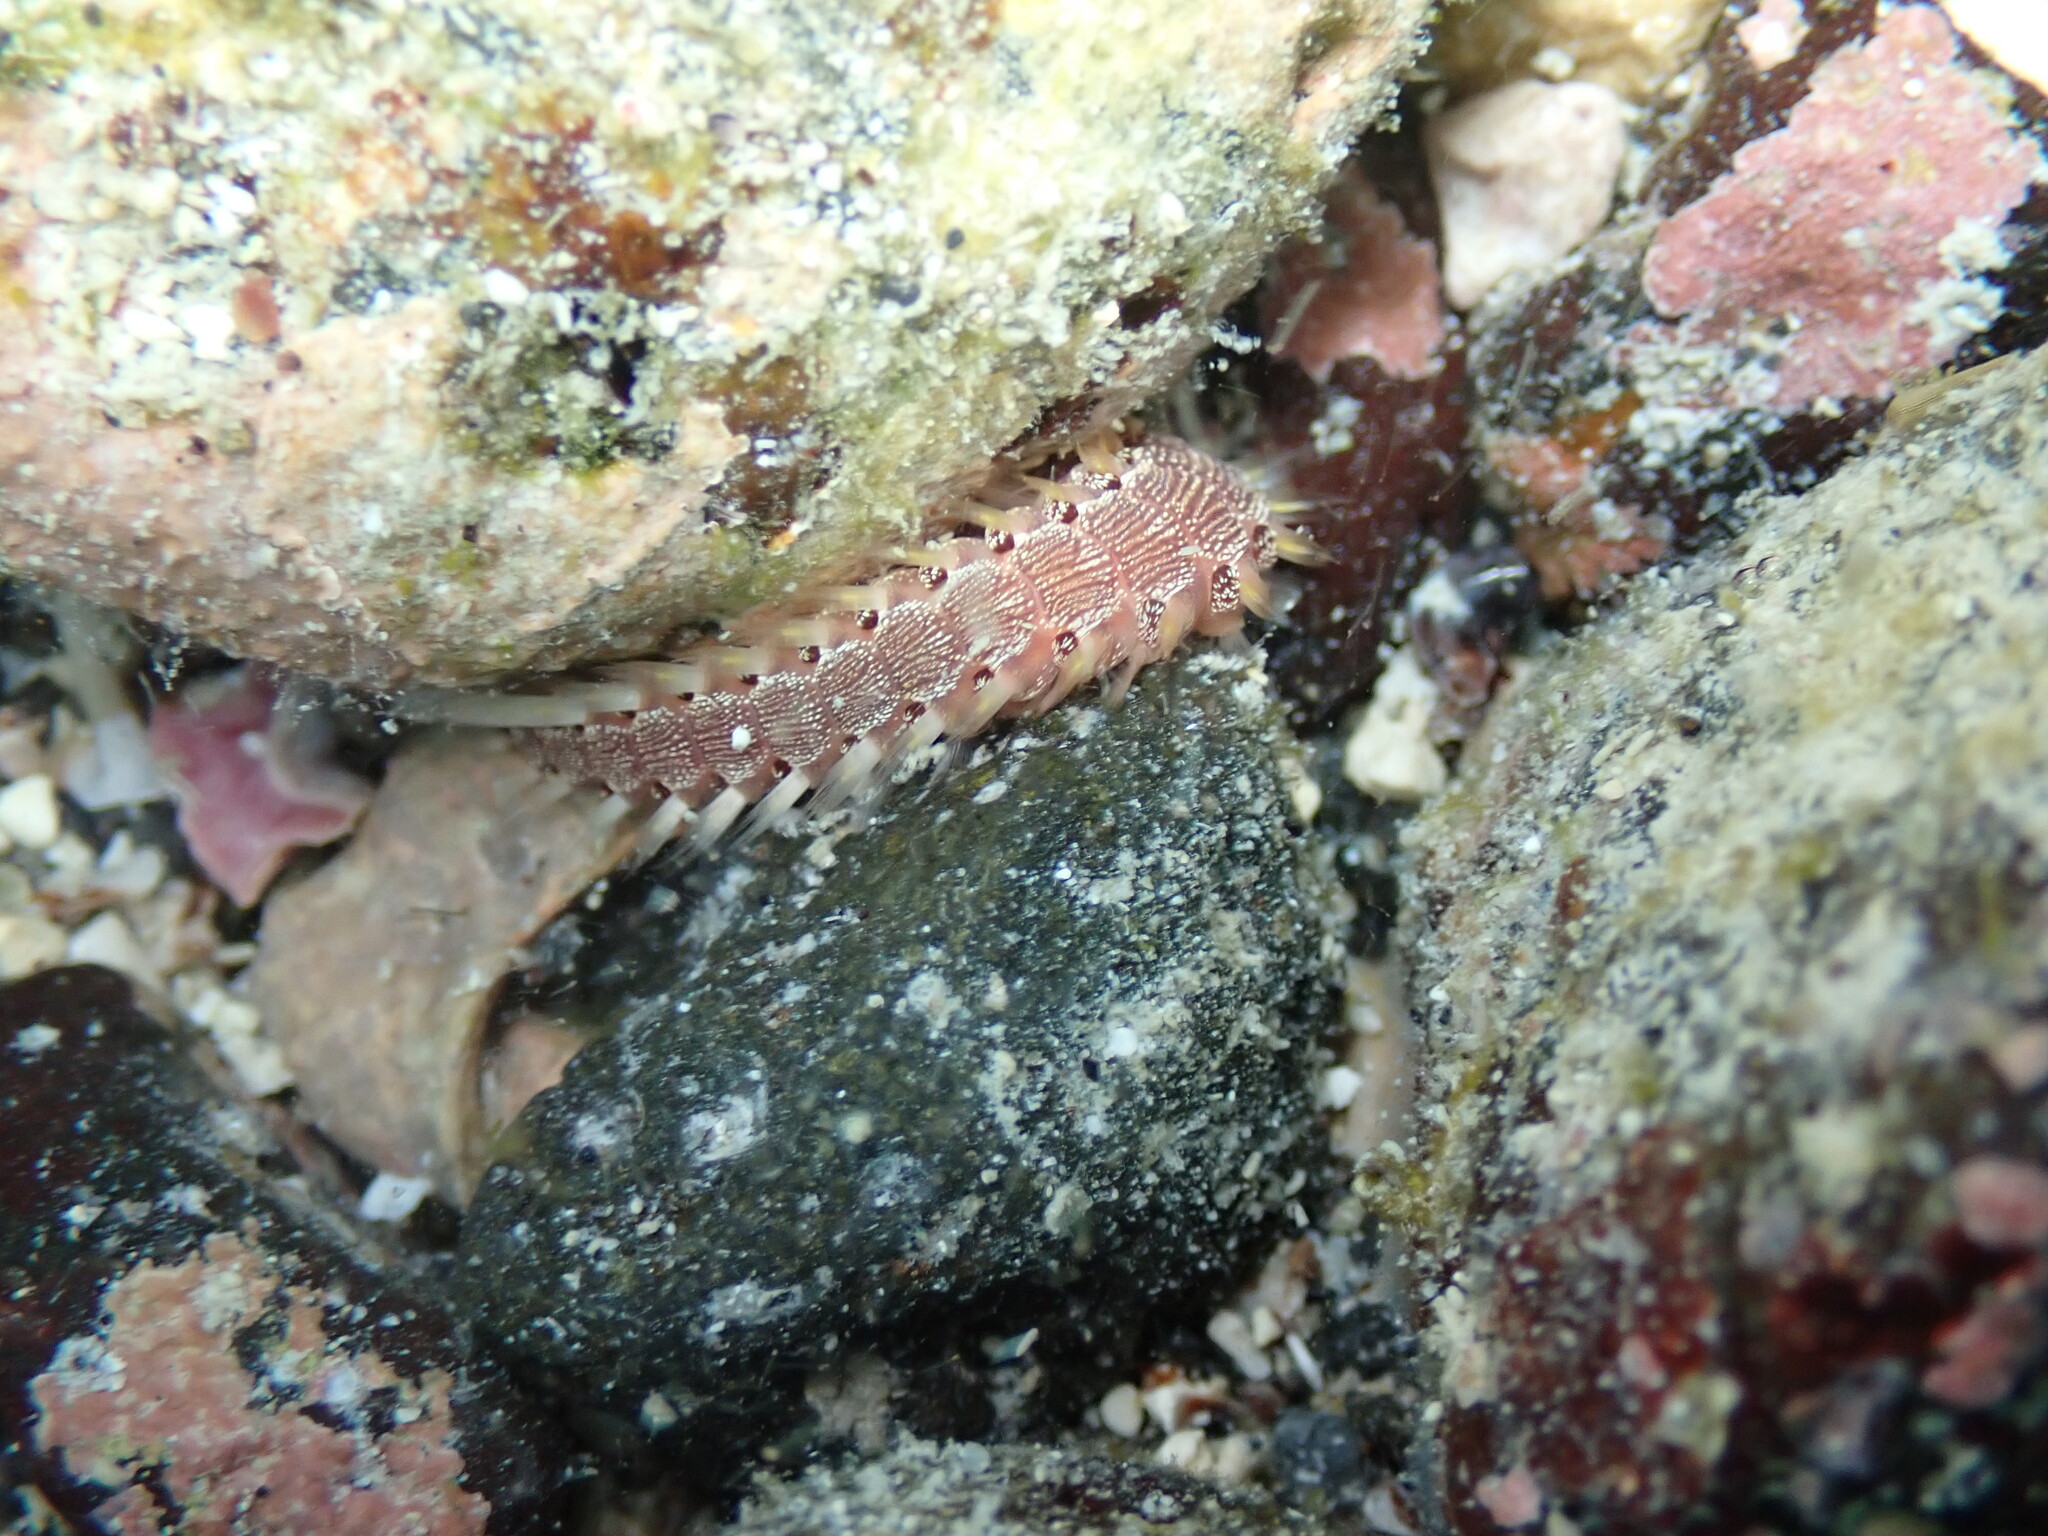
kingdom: Animalia
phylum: Annelida
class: Polychaeta
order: Amphinomida
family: Amphinomidae
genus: Pherecardia
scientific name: Pherecardia striata
